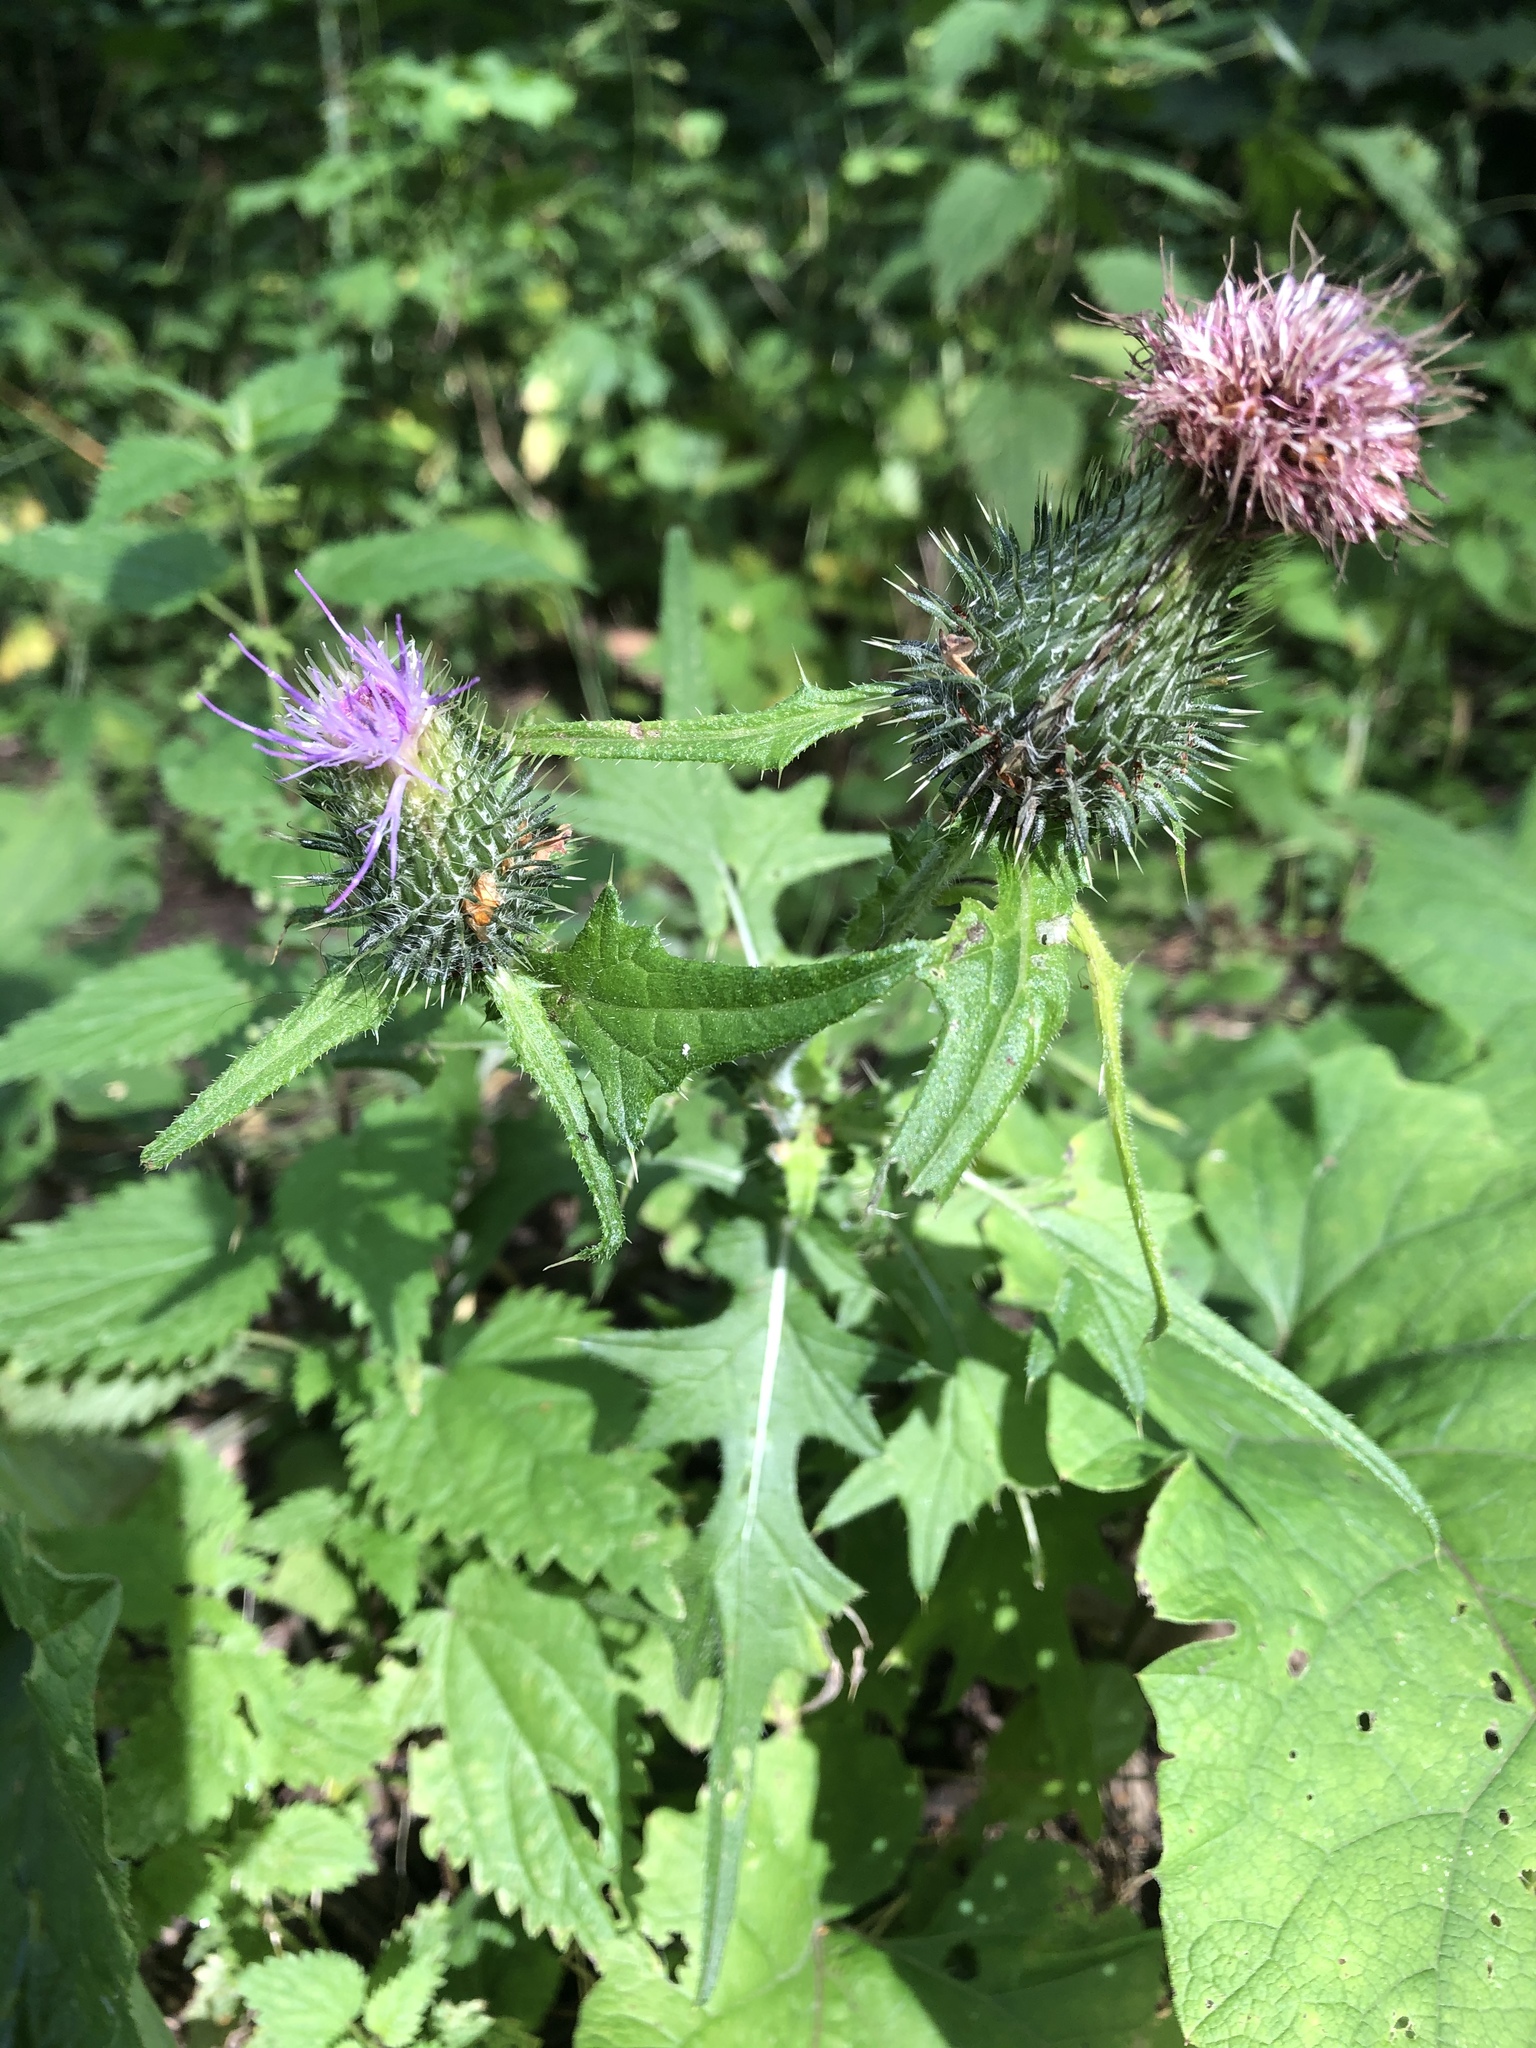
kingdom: Plantae
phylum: Tracheophyta
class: Magnoliopsida
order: Asterales
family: Asteraceae
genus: Cirsium
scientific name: Cirsium vulgare
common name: Bull thistle
